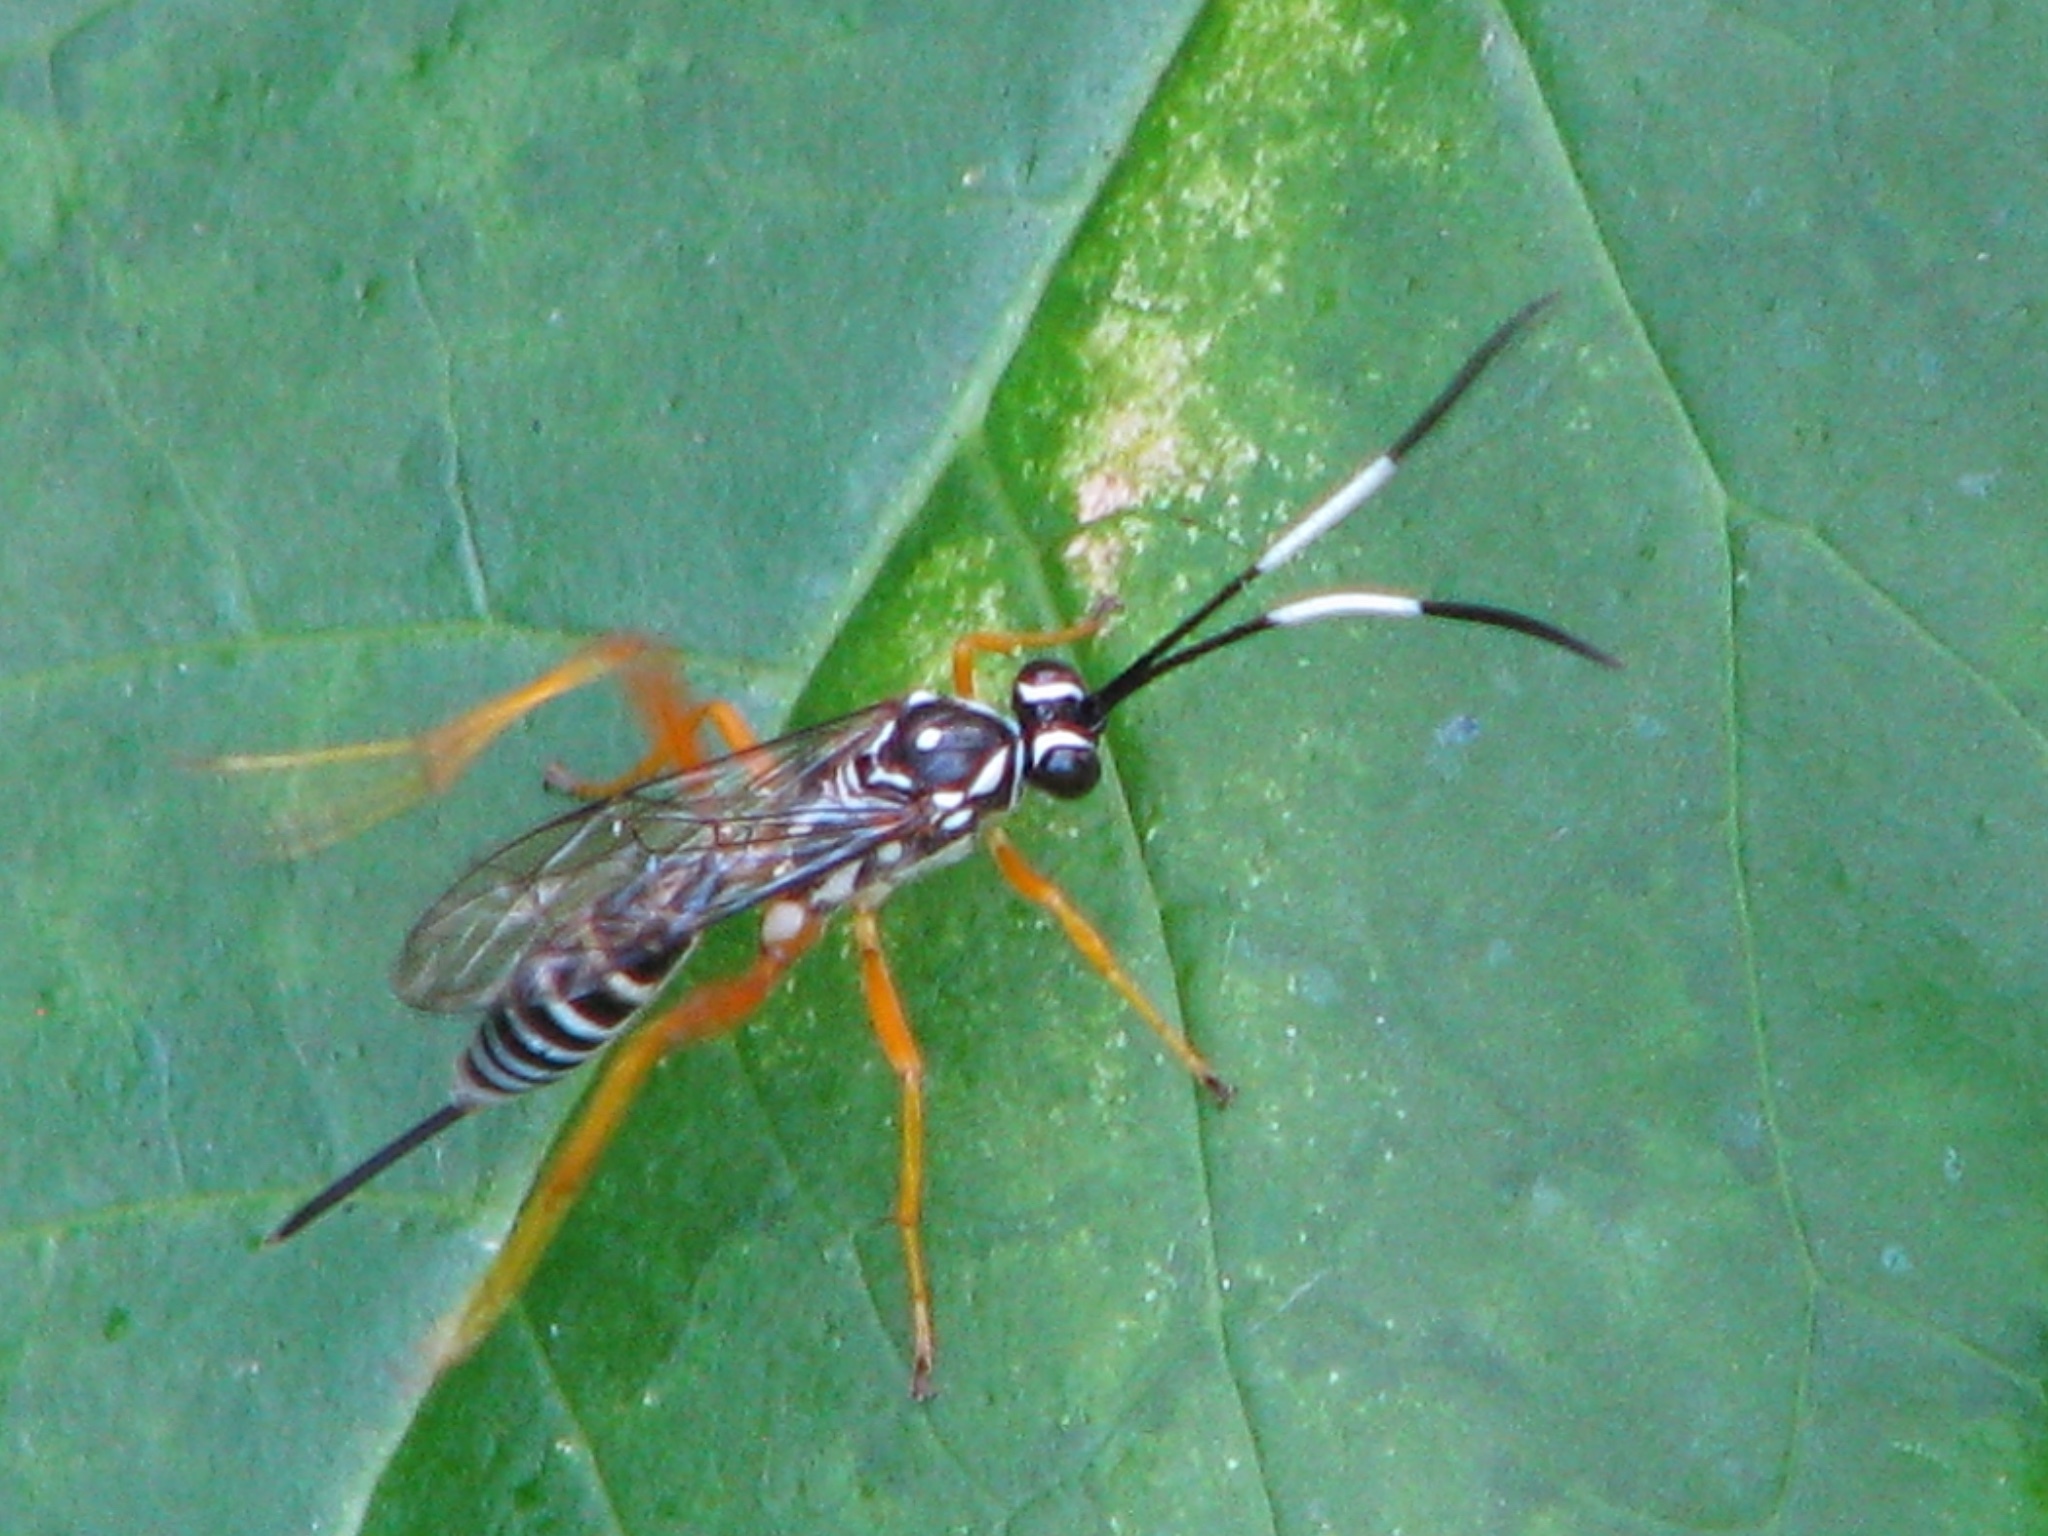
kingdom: Animalia
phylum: Arthropoda
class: Insecta
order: Hymenoptera
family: Ichneumonidae
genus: Cryptanura
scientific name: Cryptanura spinaria
